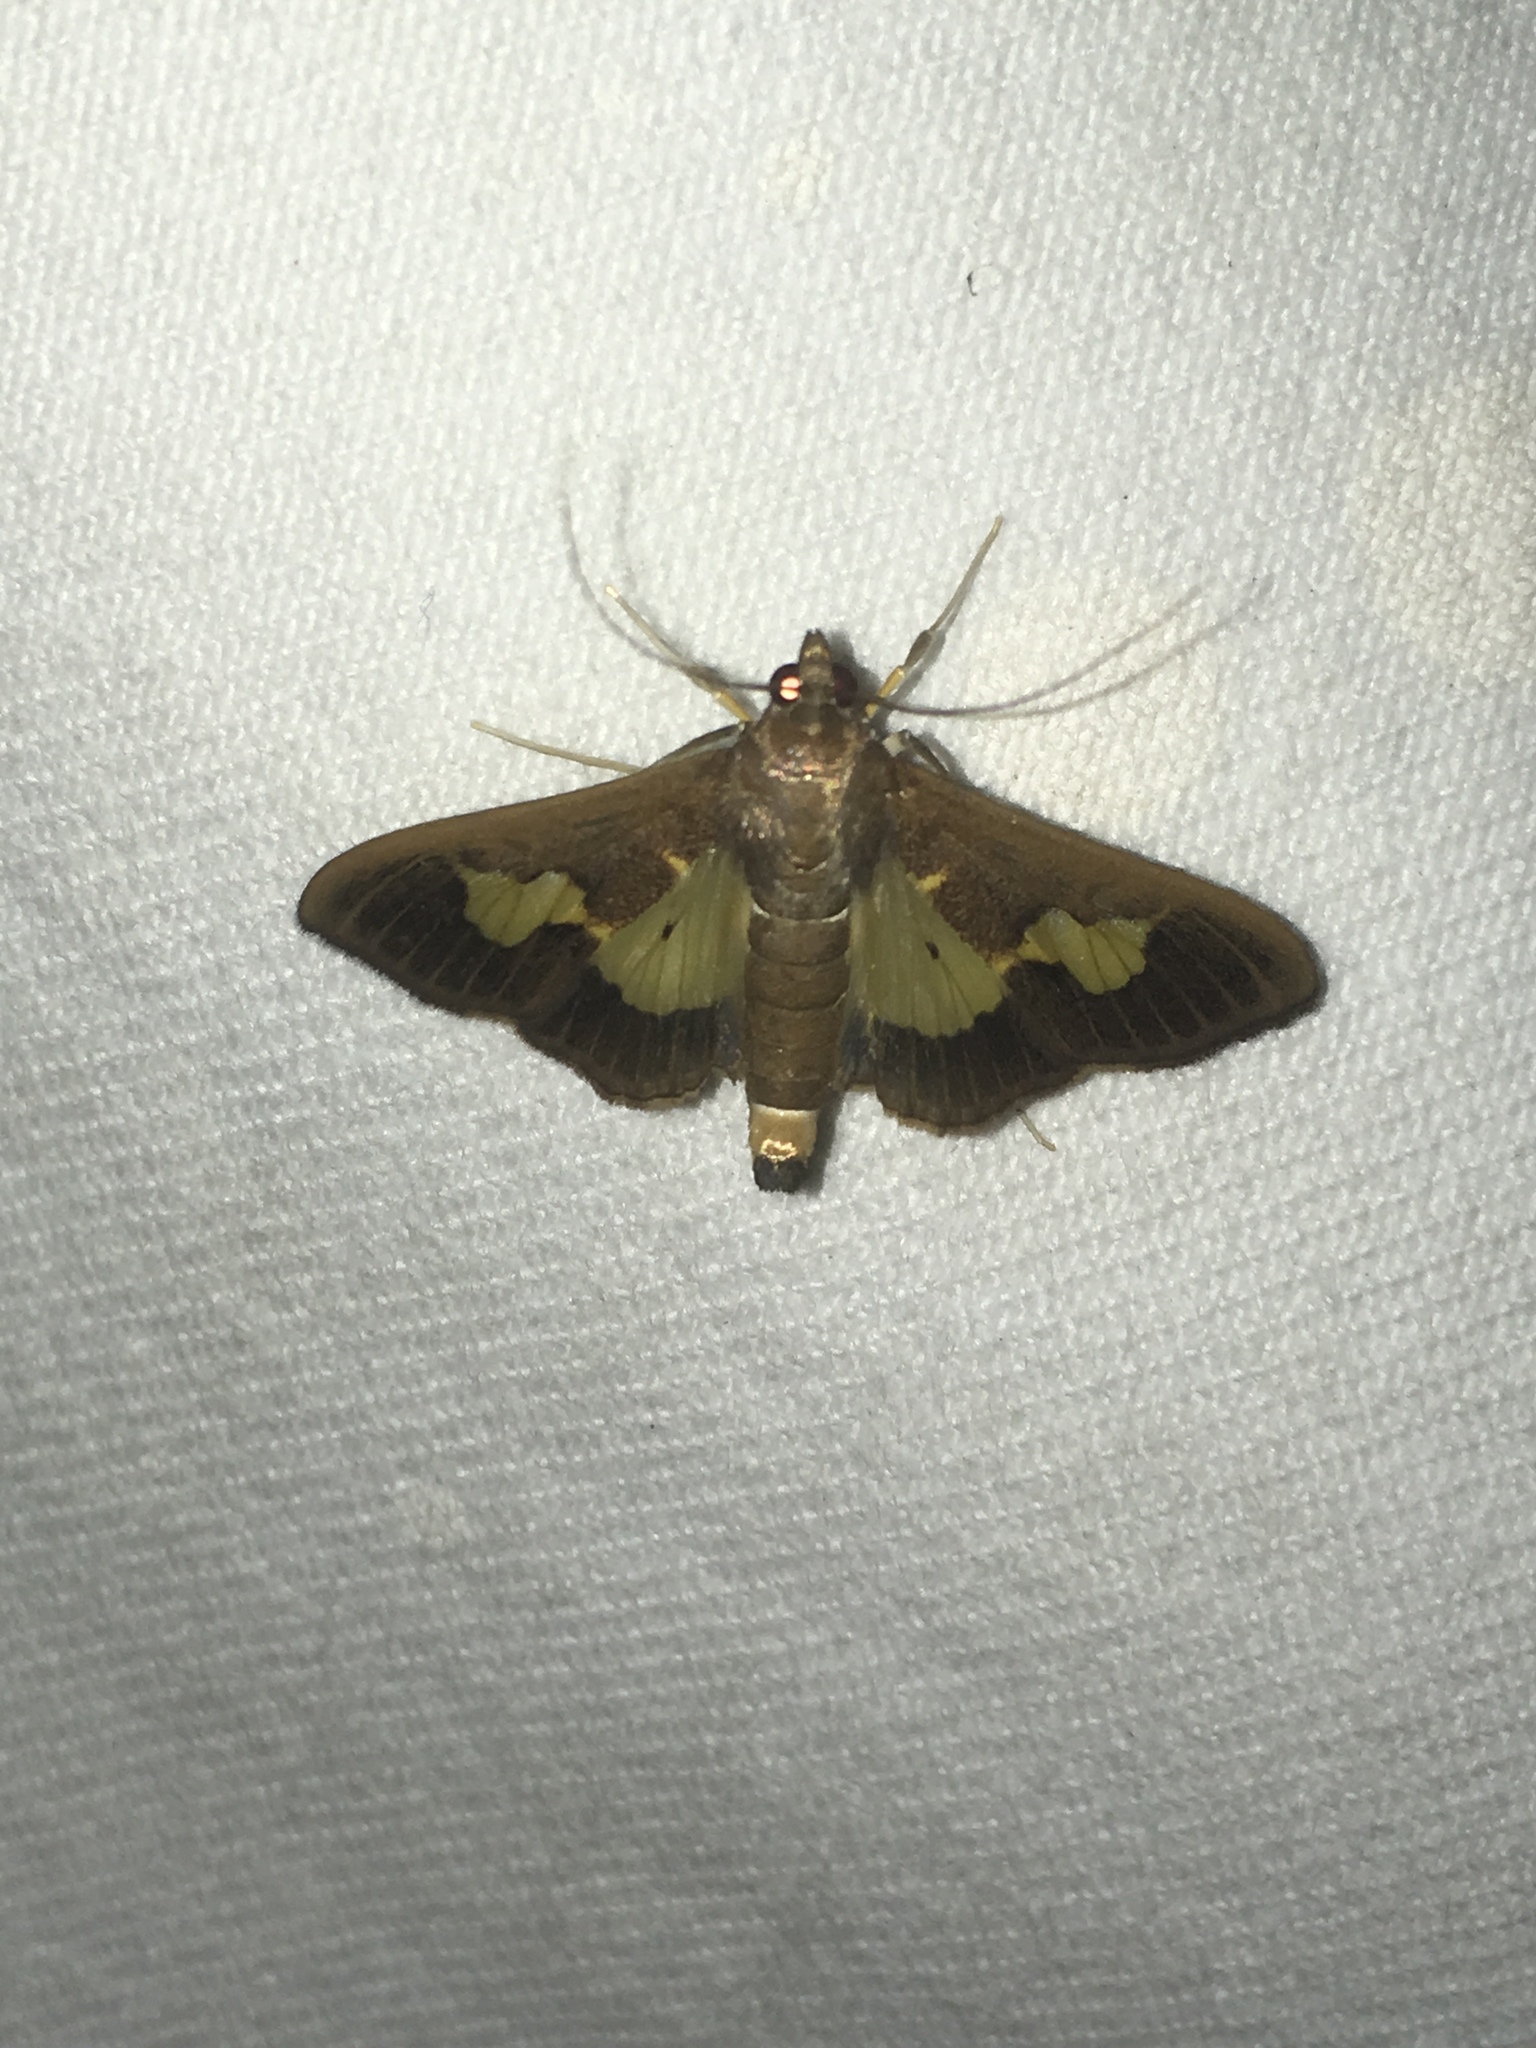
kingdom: Animalia
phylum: Arthropoda
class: Insecta
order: Lepidoptera
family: Crambidae
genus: Cryptographis
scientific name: Cryptographis nitidalis
